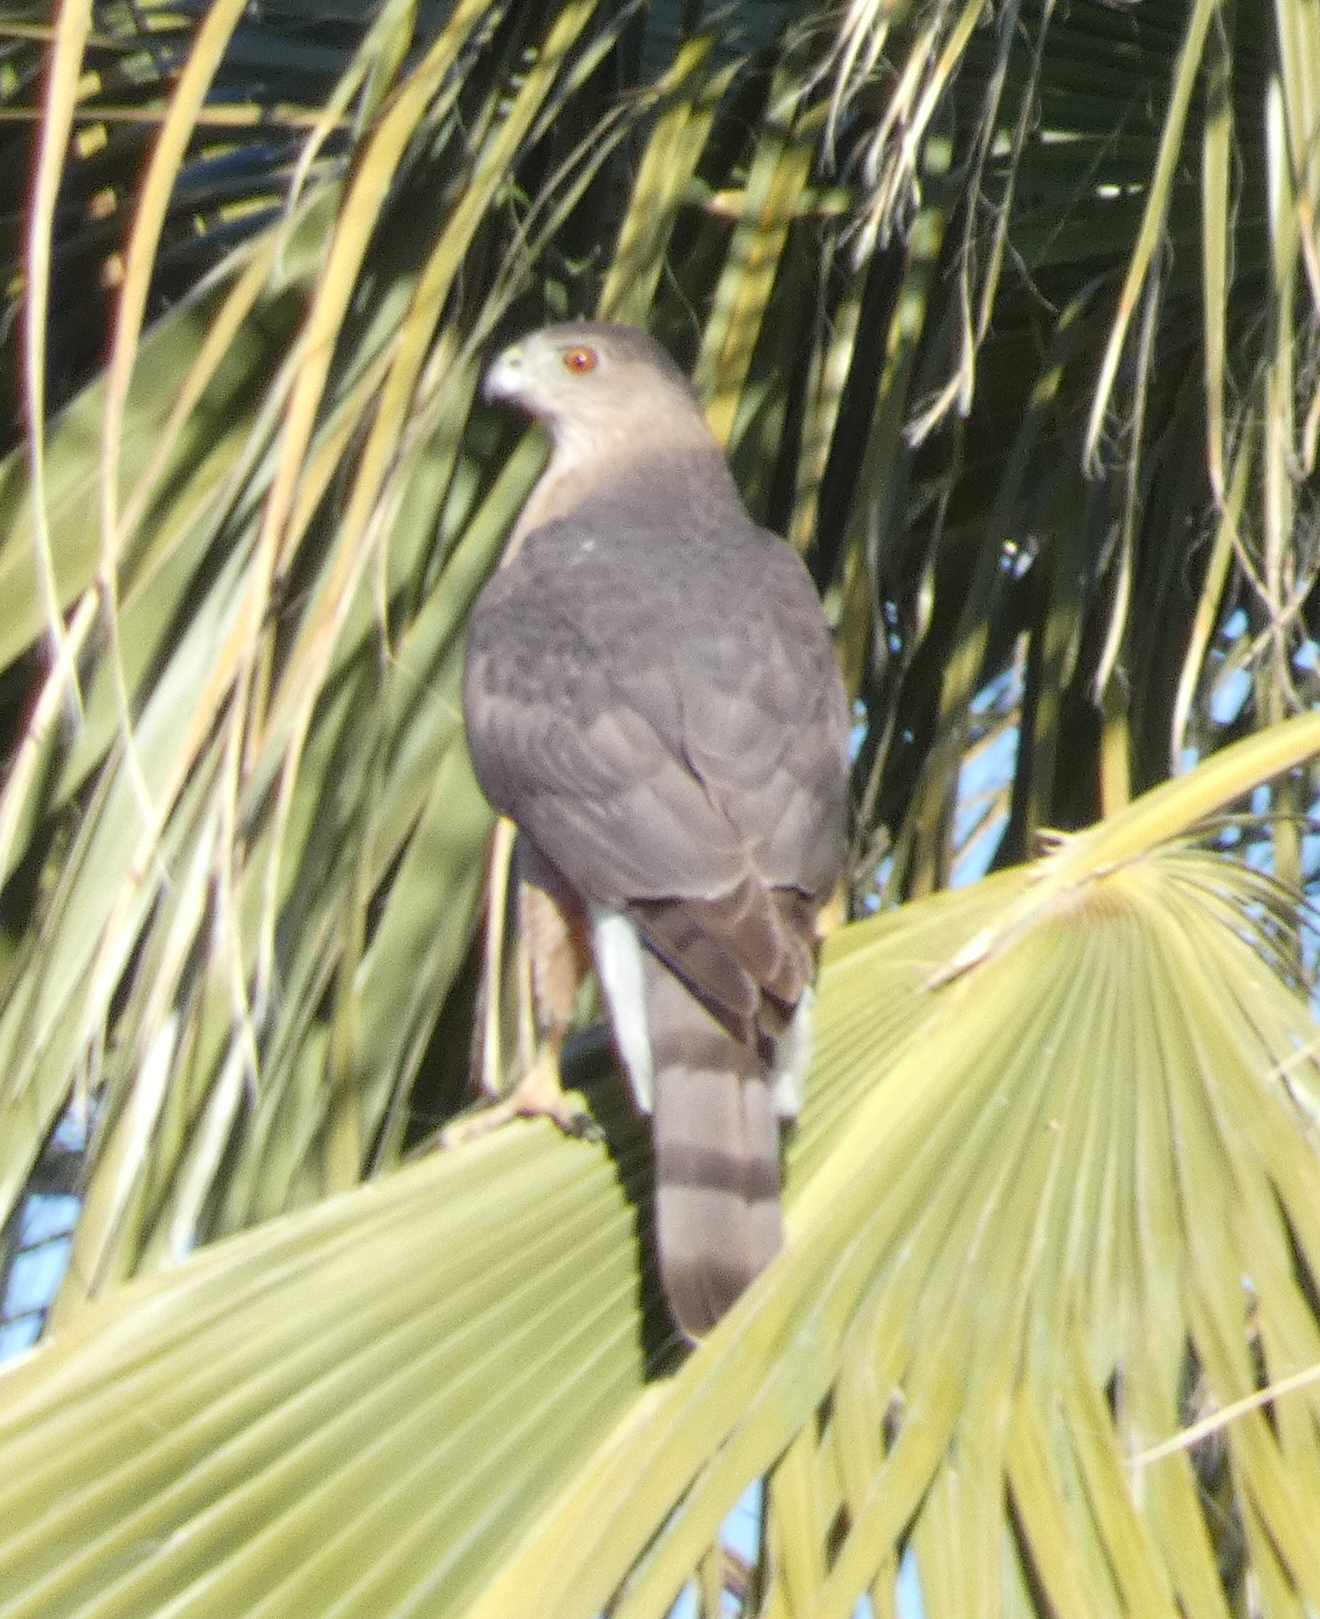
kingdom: Animalia
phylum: Chordata
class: Aves
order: Accipitriformes
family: Accipitridae
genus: Accipiter
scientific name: Accipiter cooperii
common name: Cooper's hawk
